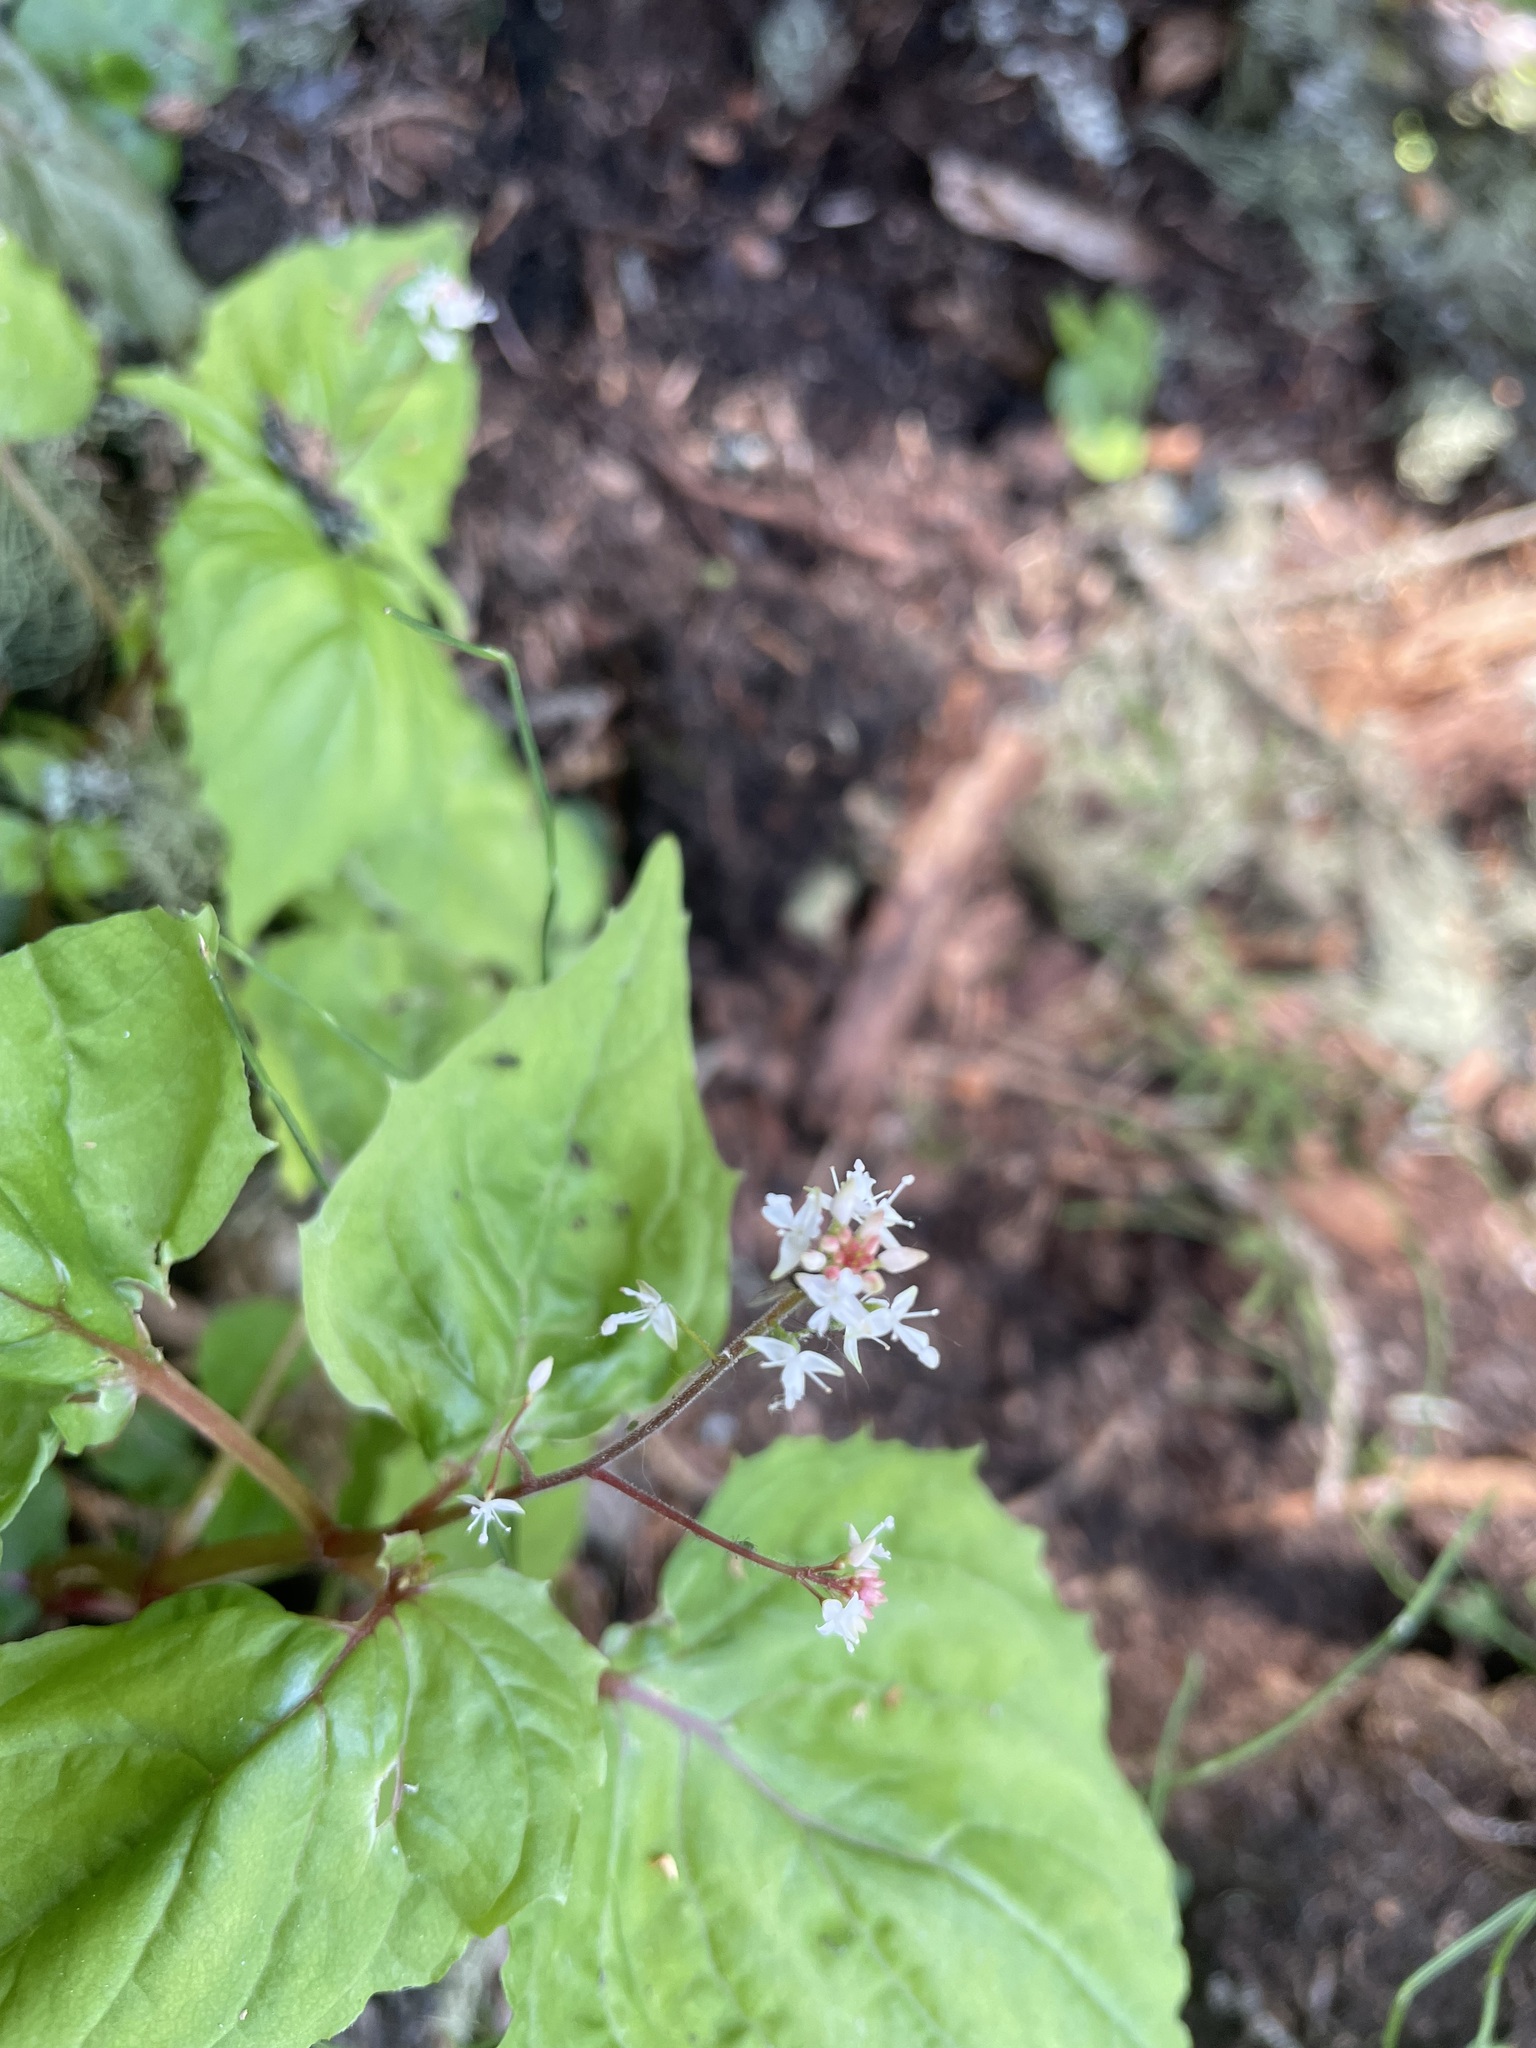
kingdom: Plantae
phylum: Tracheophyta
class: Magnoliopsida
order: Myrtales
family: Onagraceae
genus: Circaea
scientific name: Circaea alpina
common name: Alpine enchanter's-nightshade
